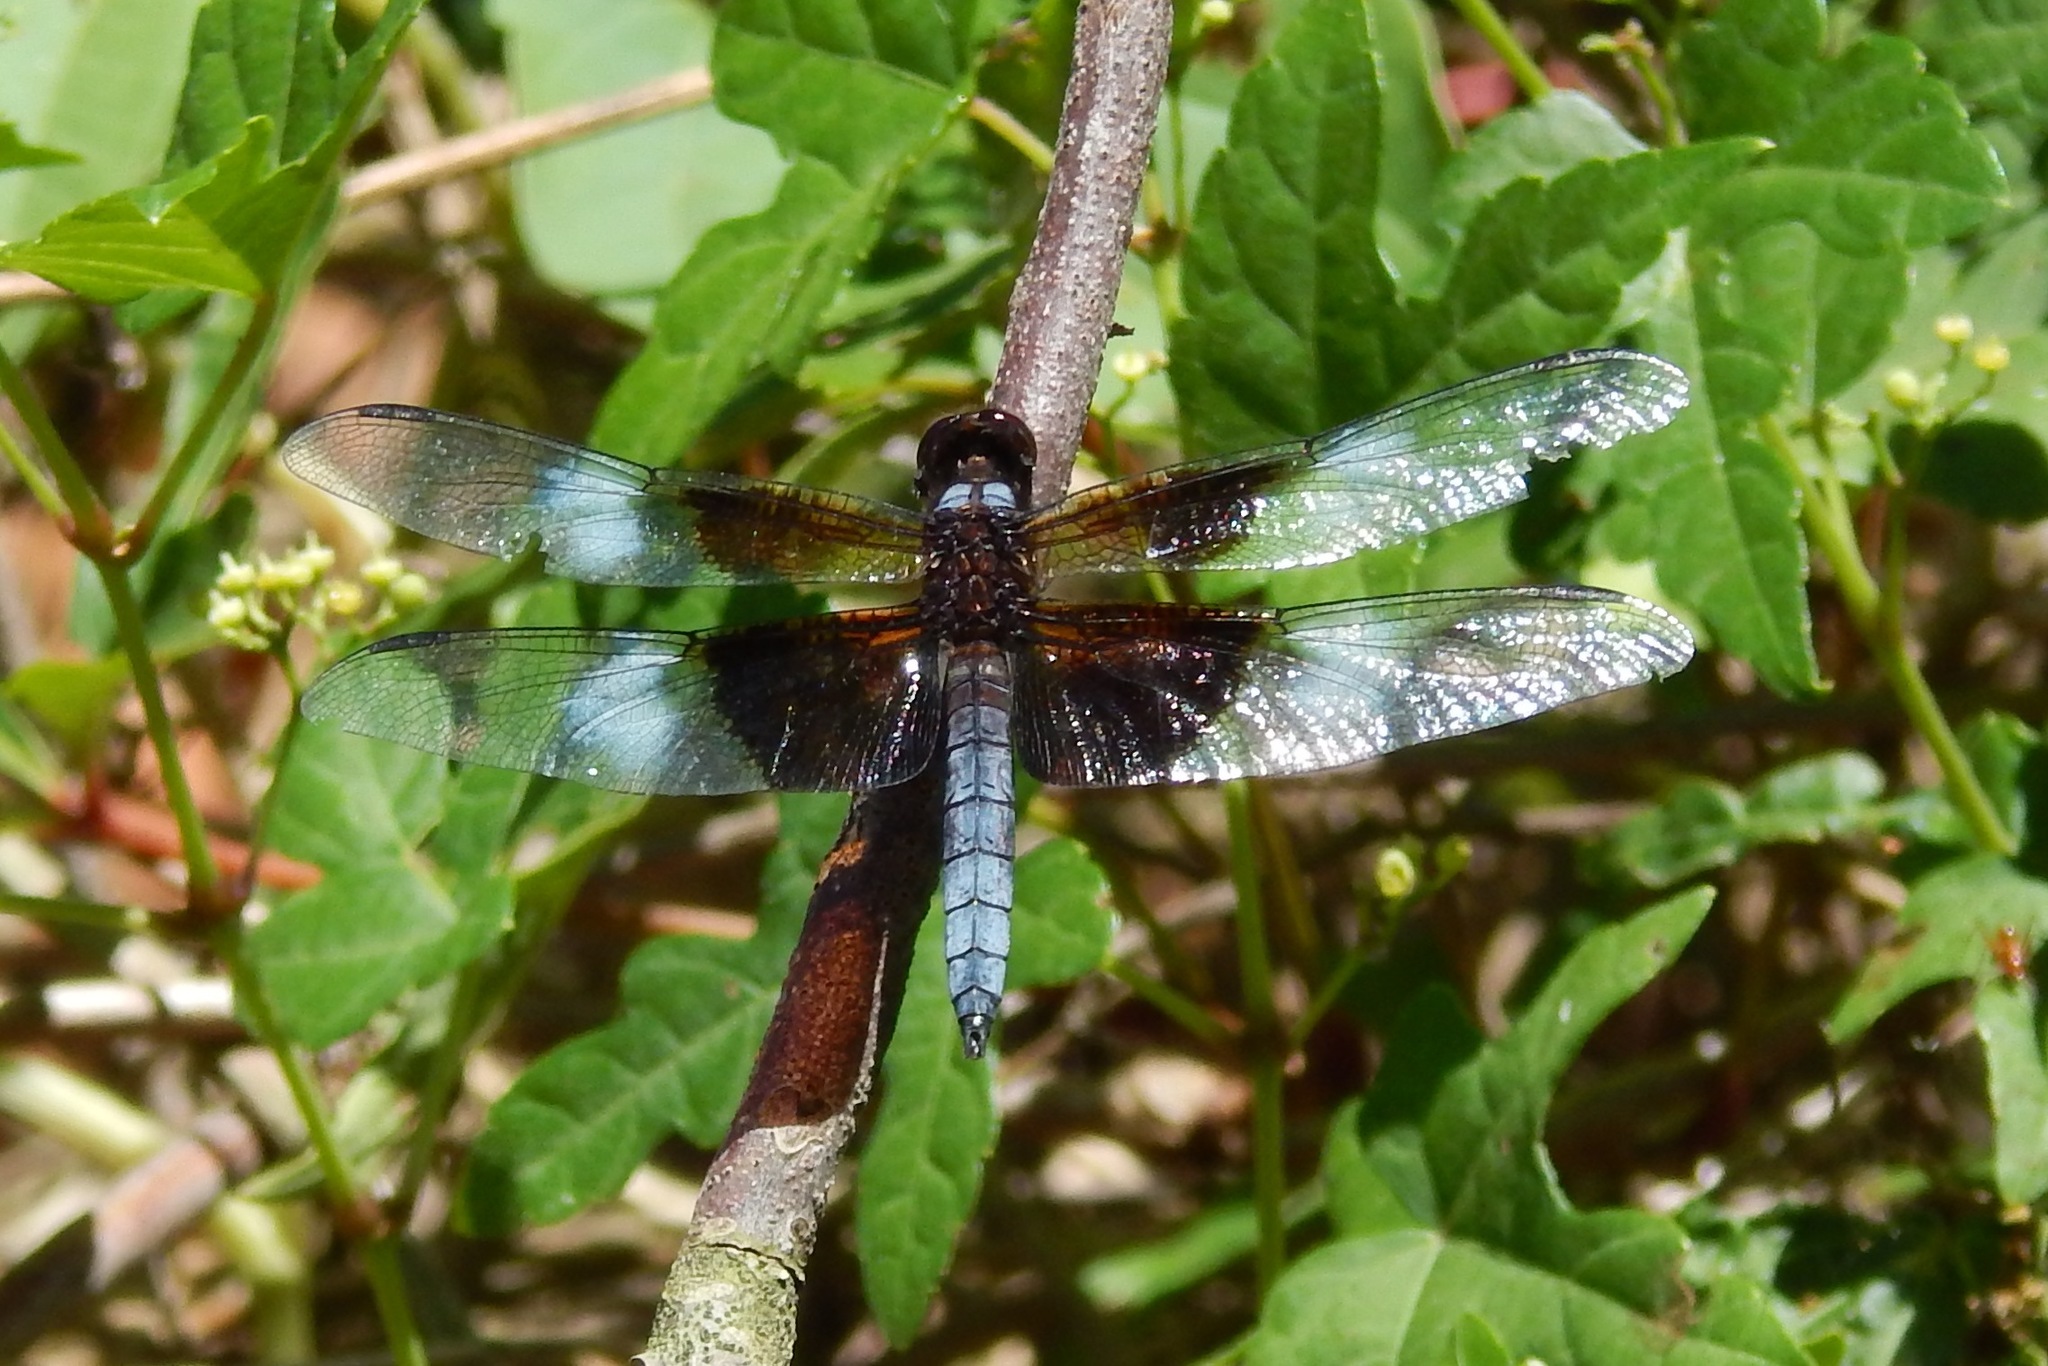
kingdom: Animalia
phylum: Arthropoda
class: Insecta
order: Odonata
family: Libellulidae
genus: Libellula
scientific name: Libellula luctuosa
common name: Widow skimmer
